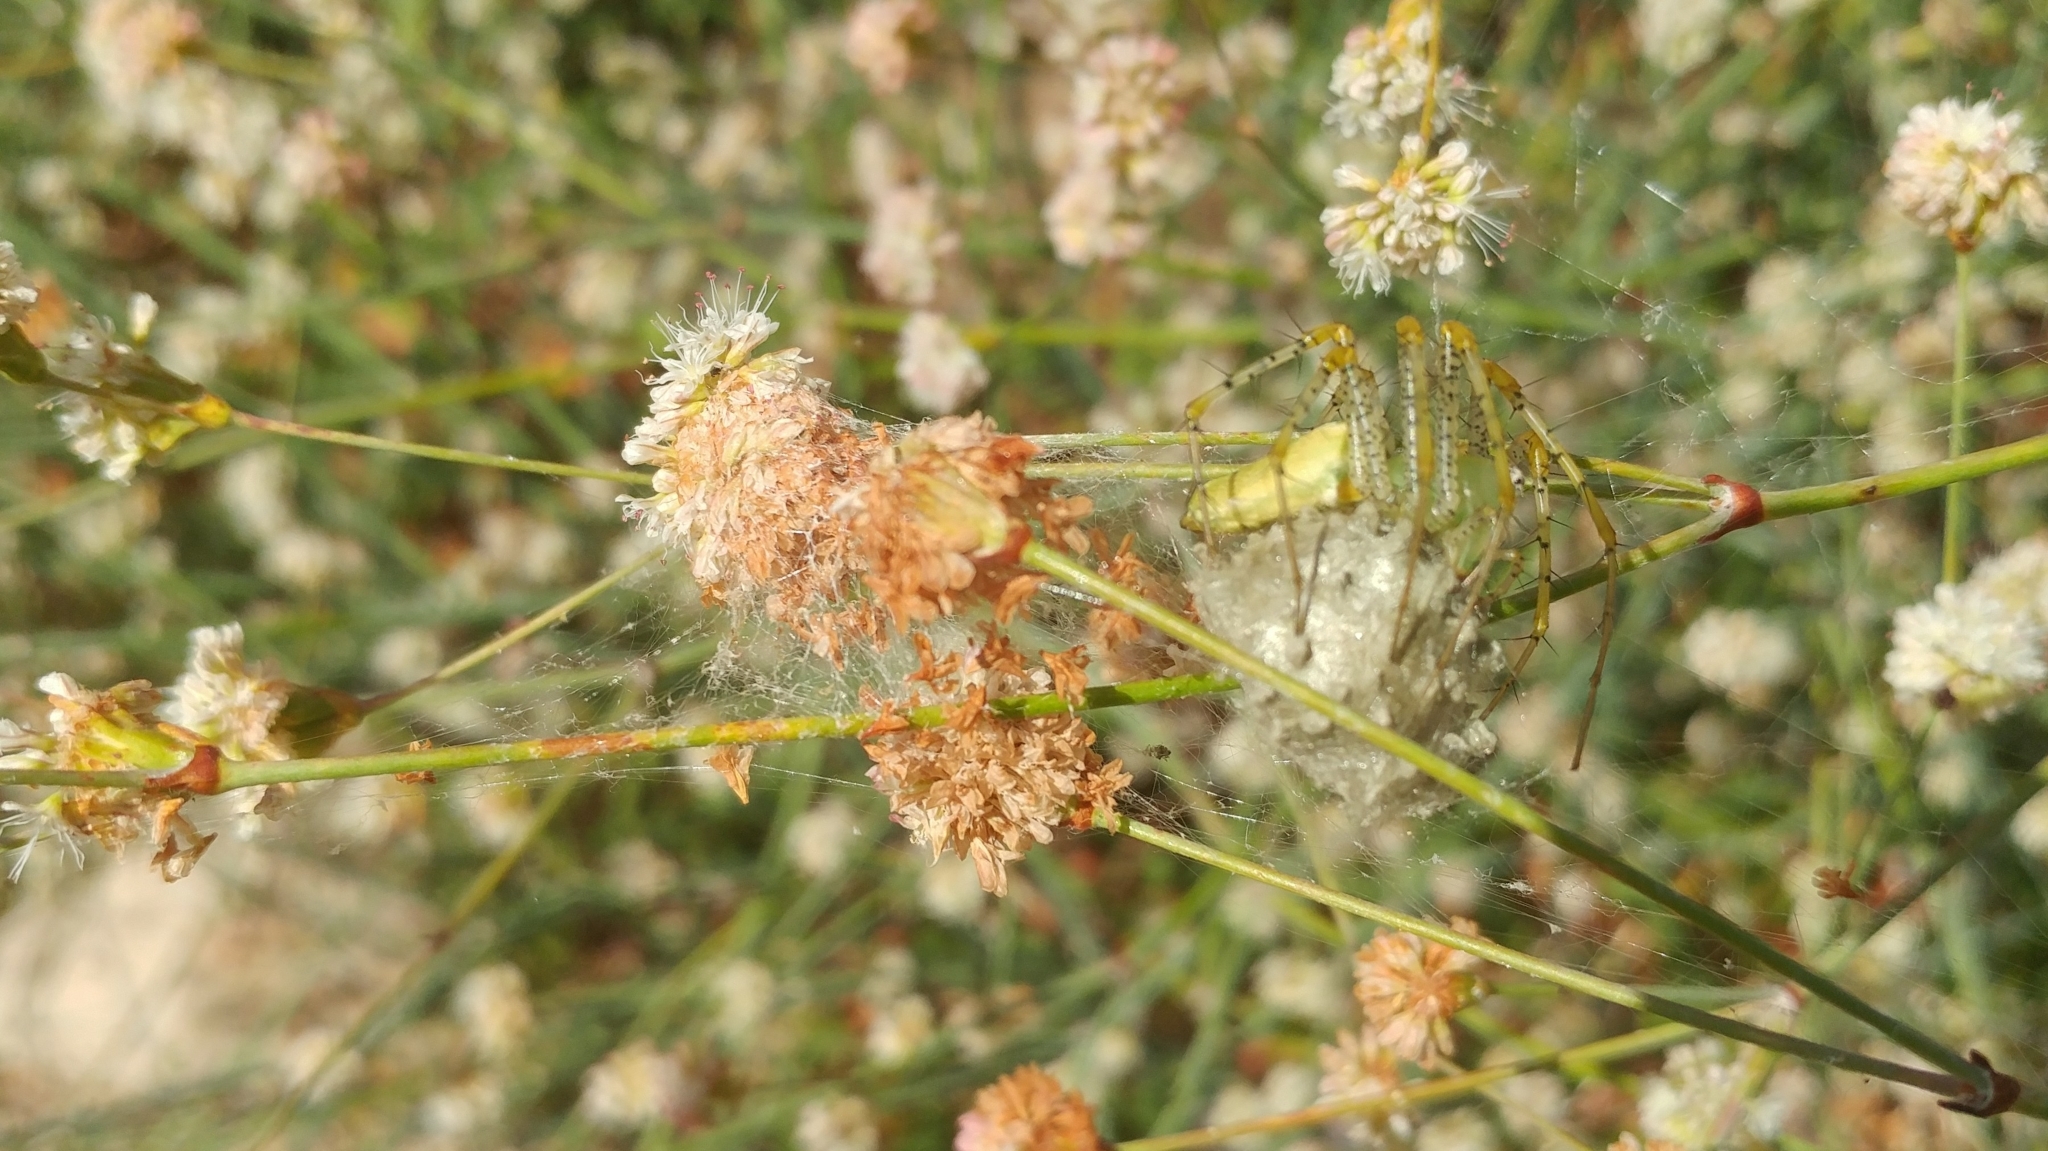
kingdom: Animalia
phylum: Arthropoda
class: Arachnida
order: Araneae
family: Oxyopidae
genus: Peucetia
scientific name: Peucetia viridans
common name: Lynx spiders
